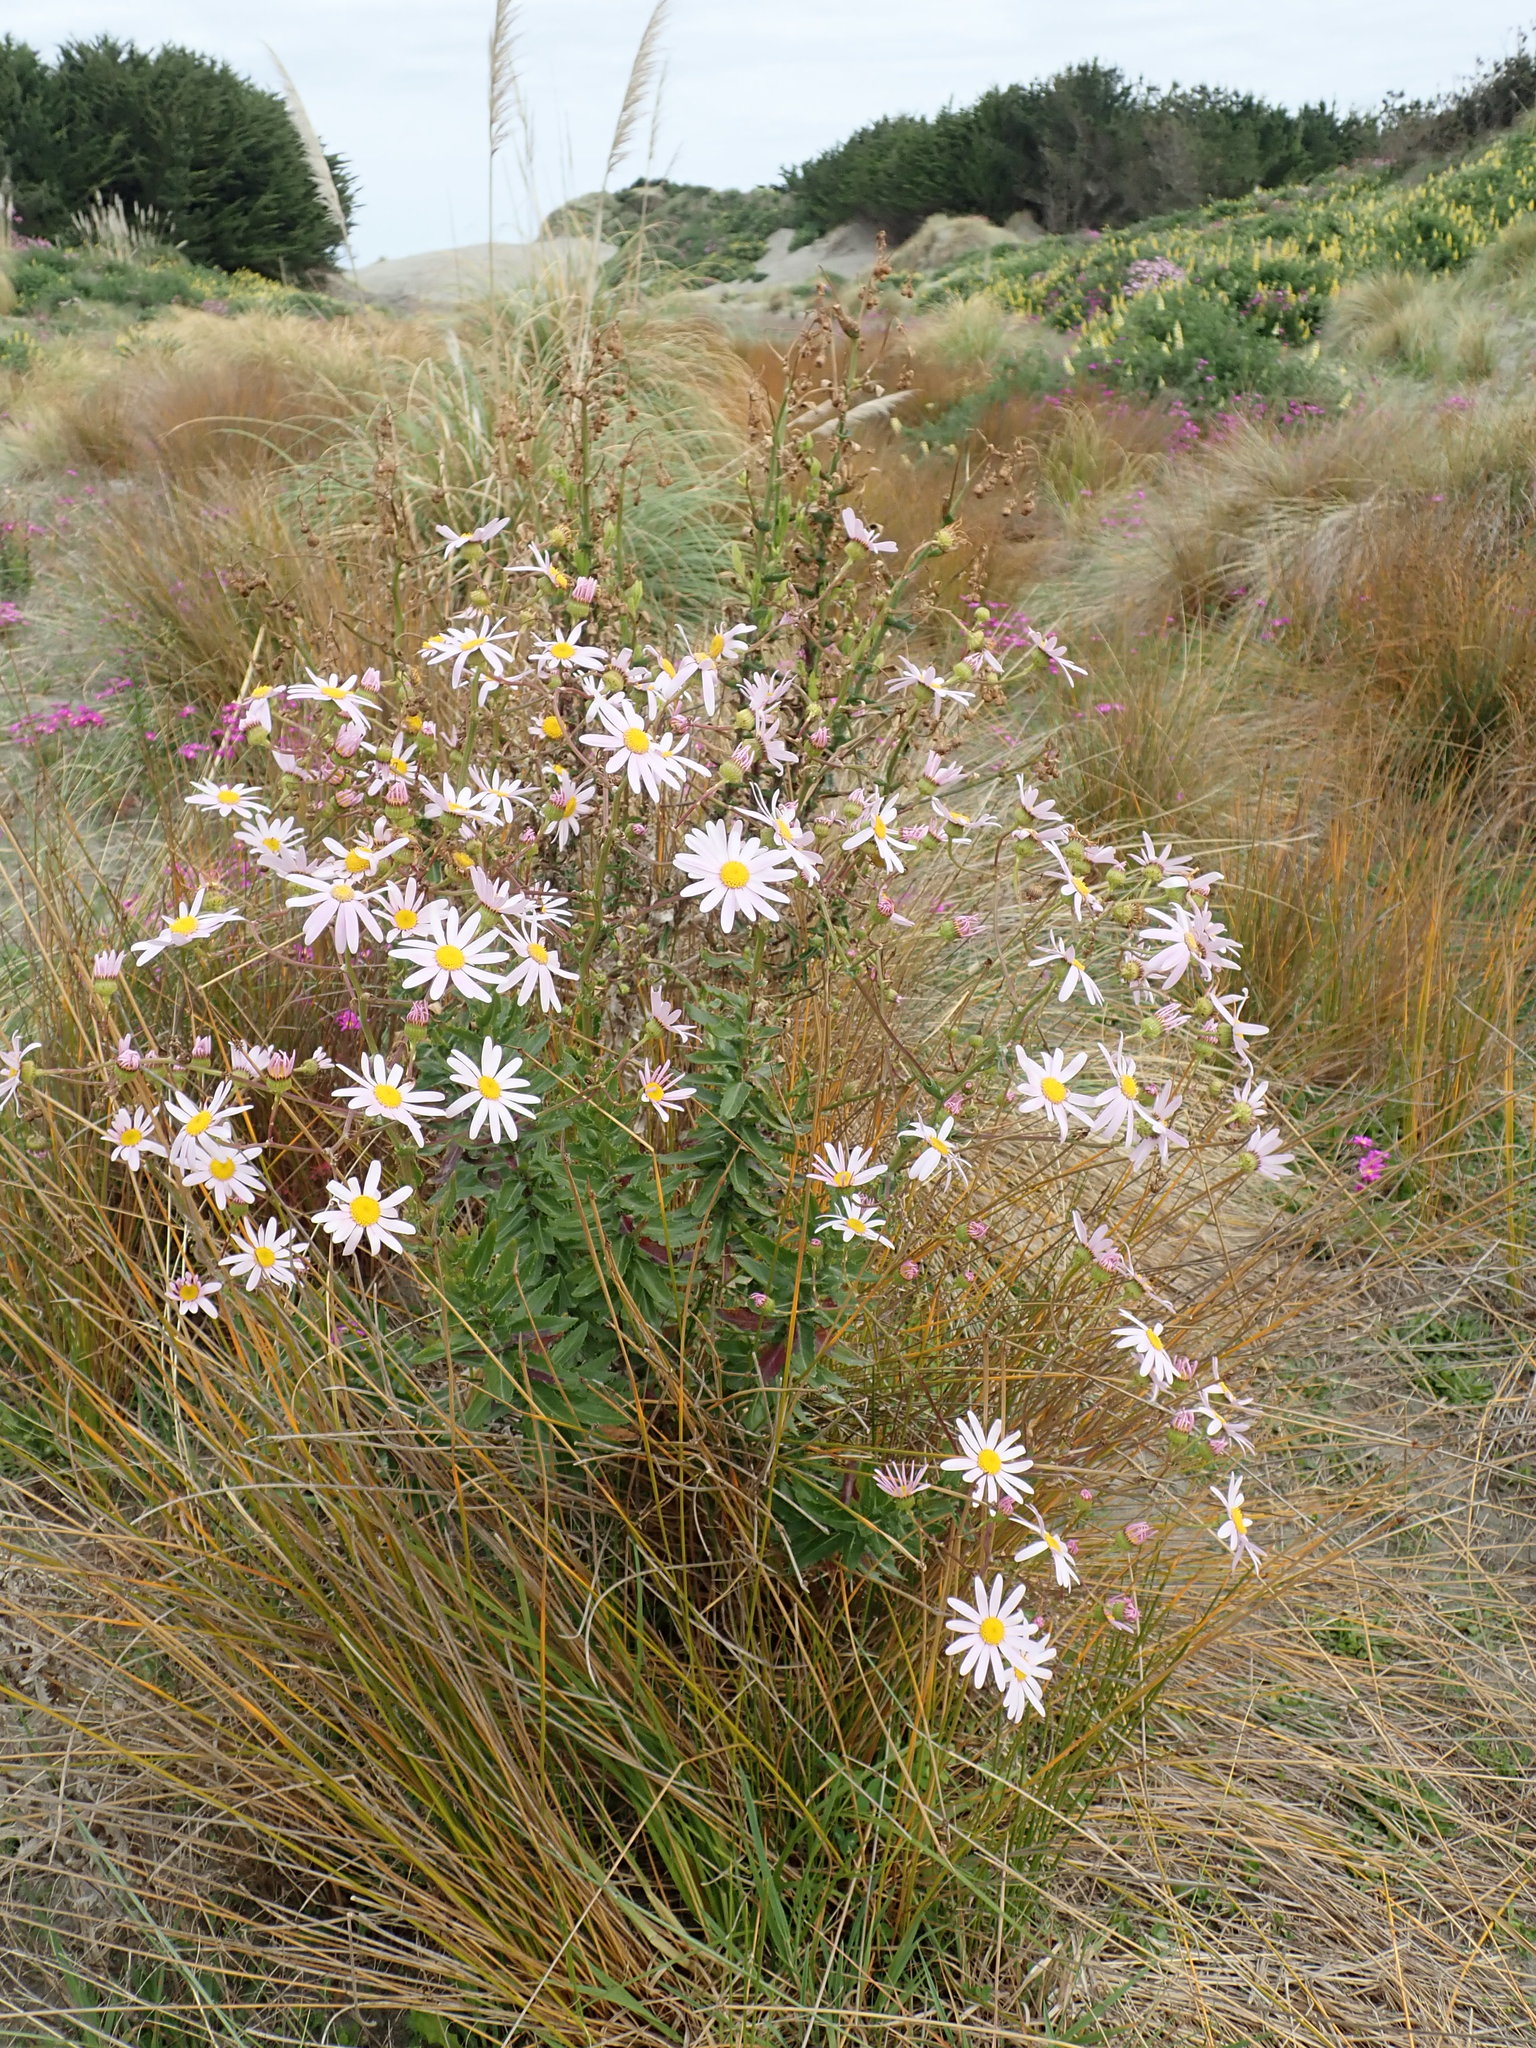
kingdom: Plantae
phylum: Tracheophyta
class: Magnoliopsida
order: Asterales
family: Asteraceae
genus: Senecio
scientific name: Senecio glastifolius
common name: Woad-leaved ragwort
